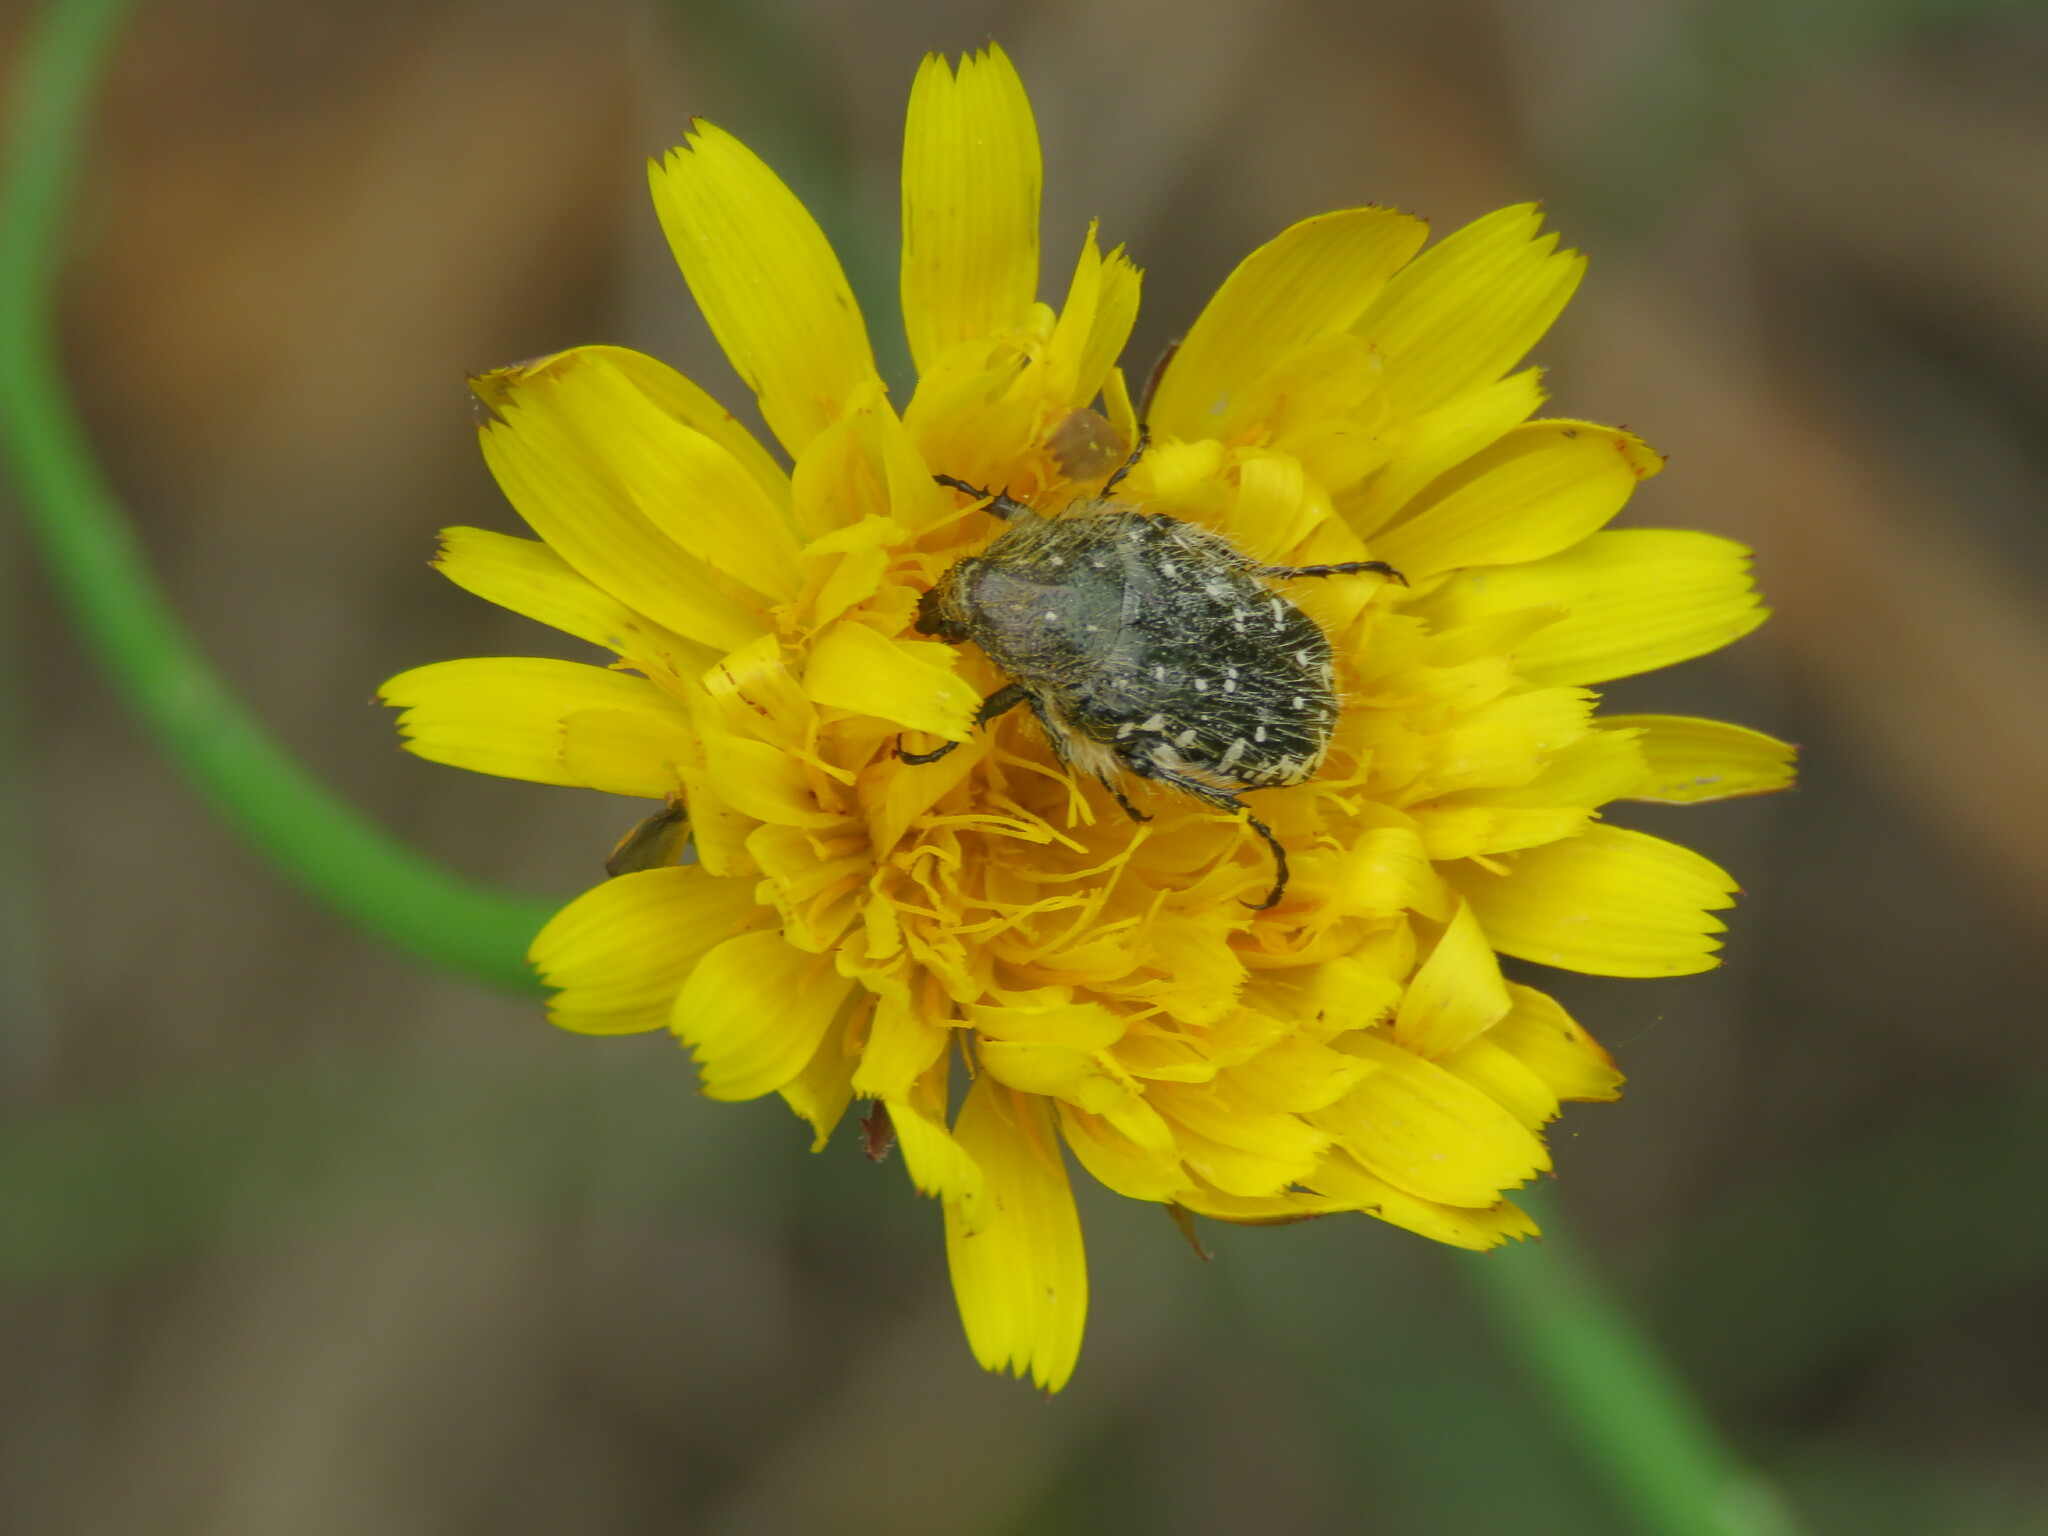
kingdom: Animalia
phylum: Arthropoda
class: Insecta
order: Coleoptera
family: Scarabaeidae
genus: Oxythyrea
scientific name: Oxythyrea funesta
